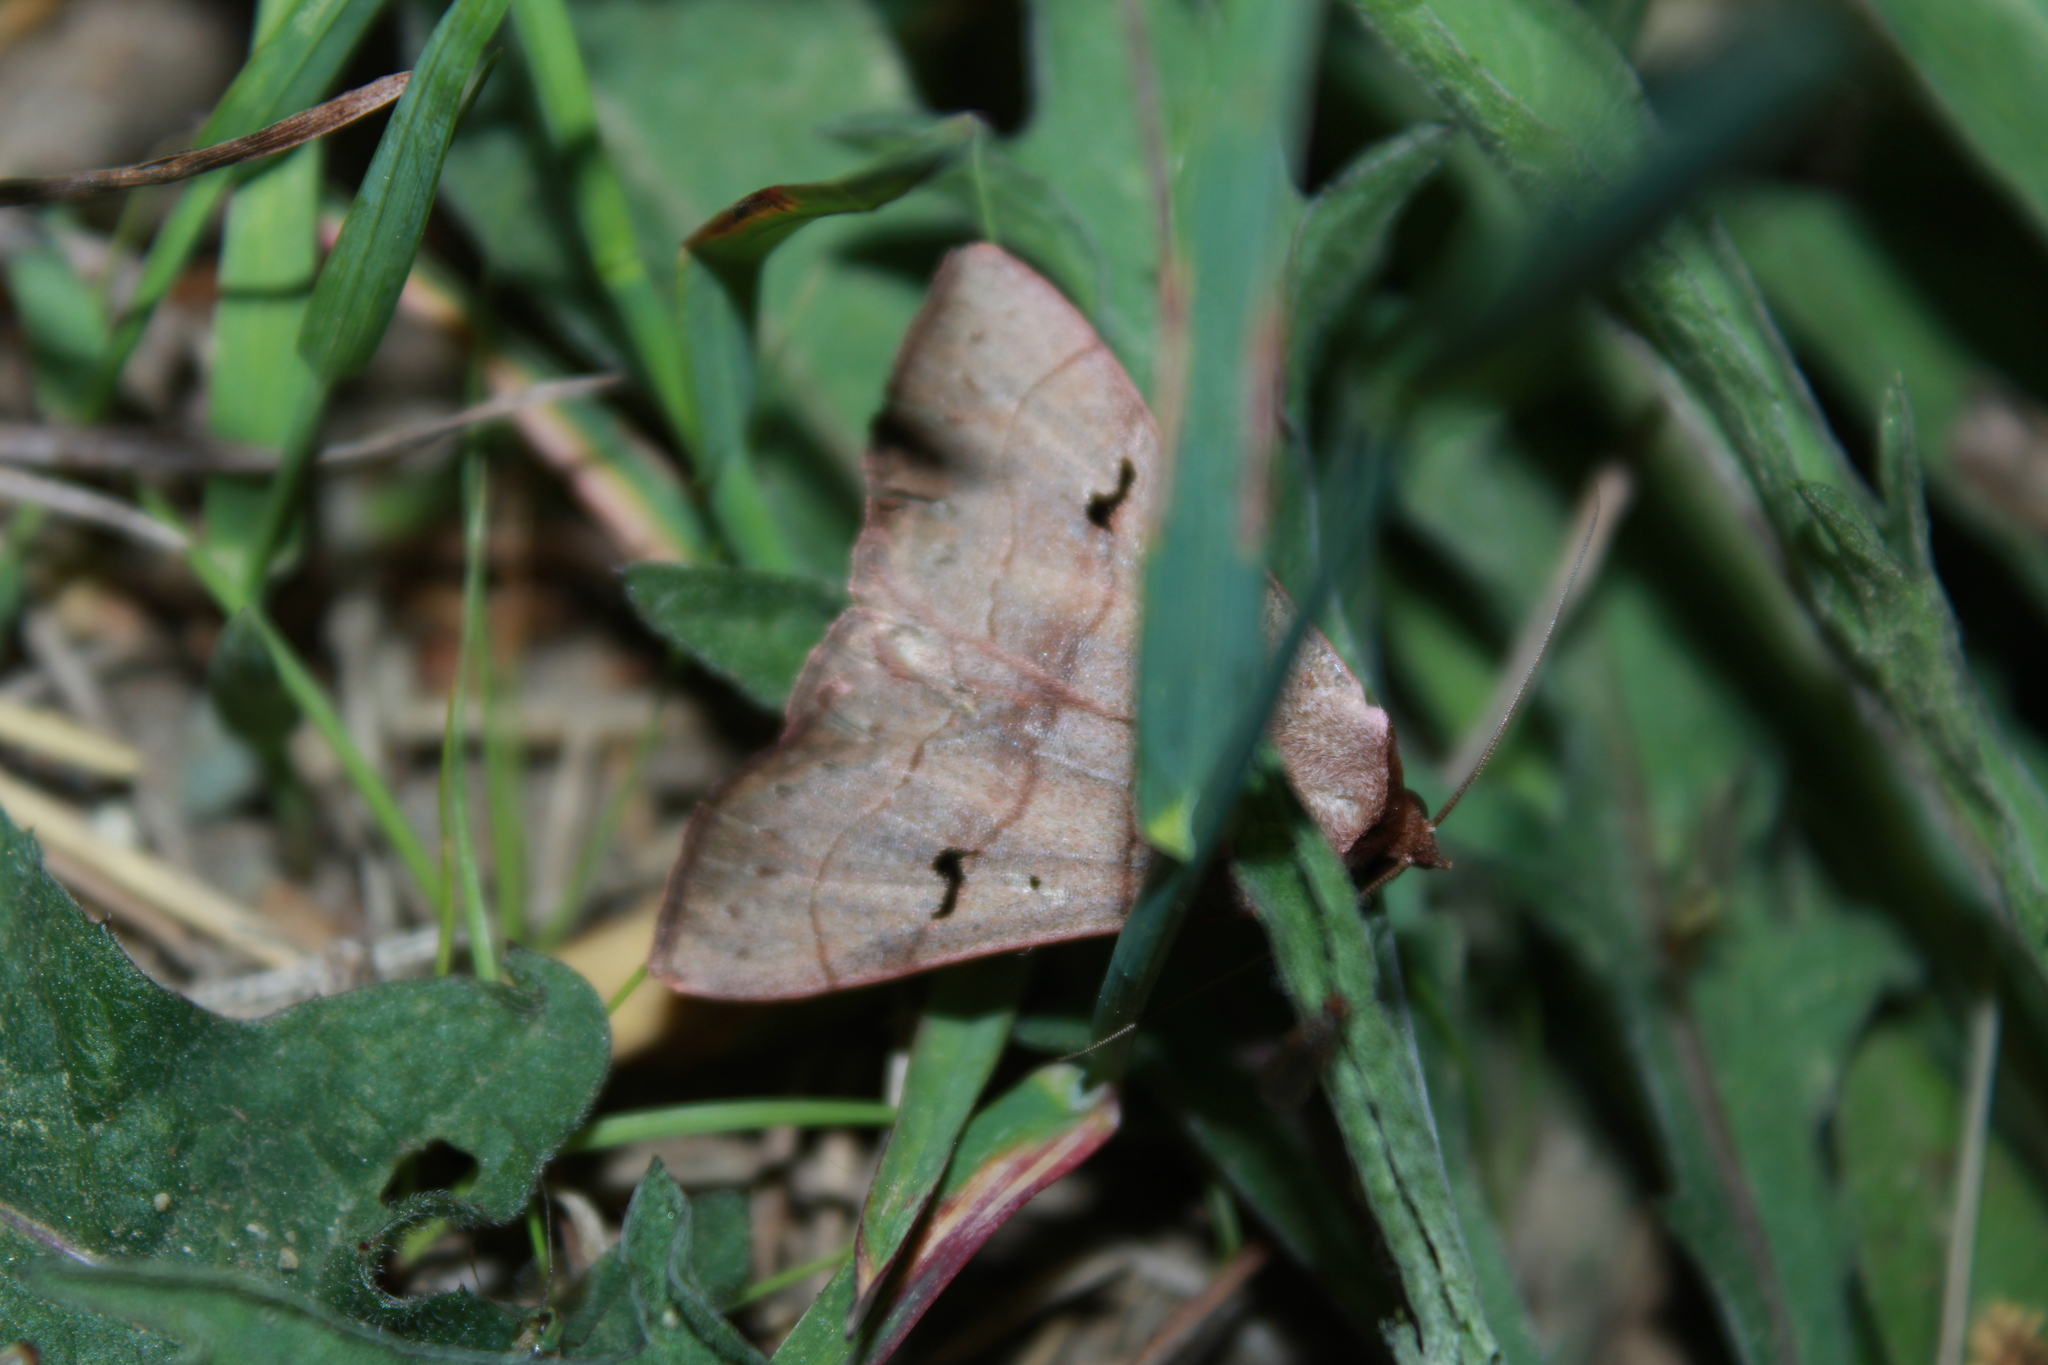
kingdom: Animalia
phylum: Arthropoda
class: Insecta
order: Lepidoptera
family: Erebidae
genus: Panopoda
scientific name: Panopoda carneicosta
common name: Brown panopoda moth
